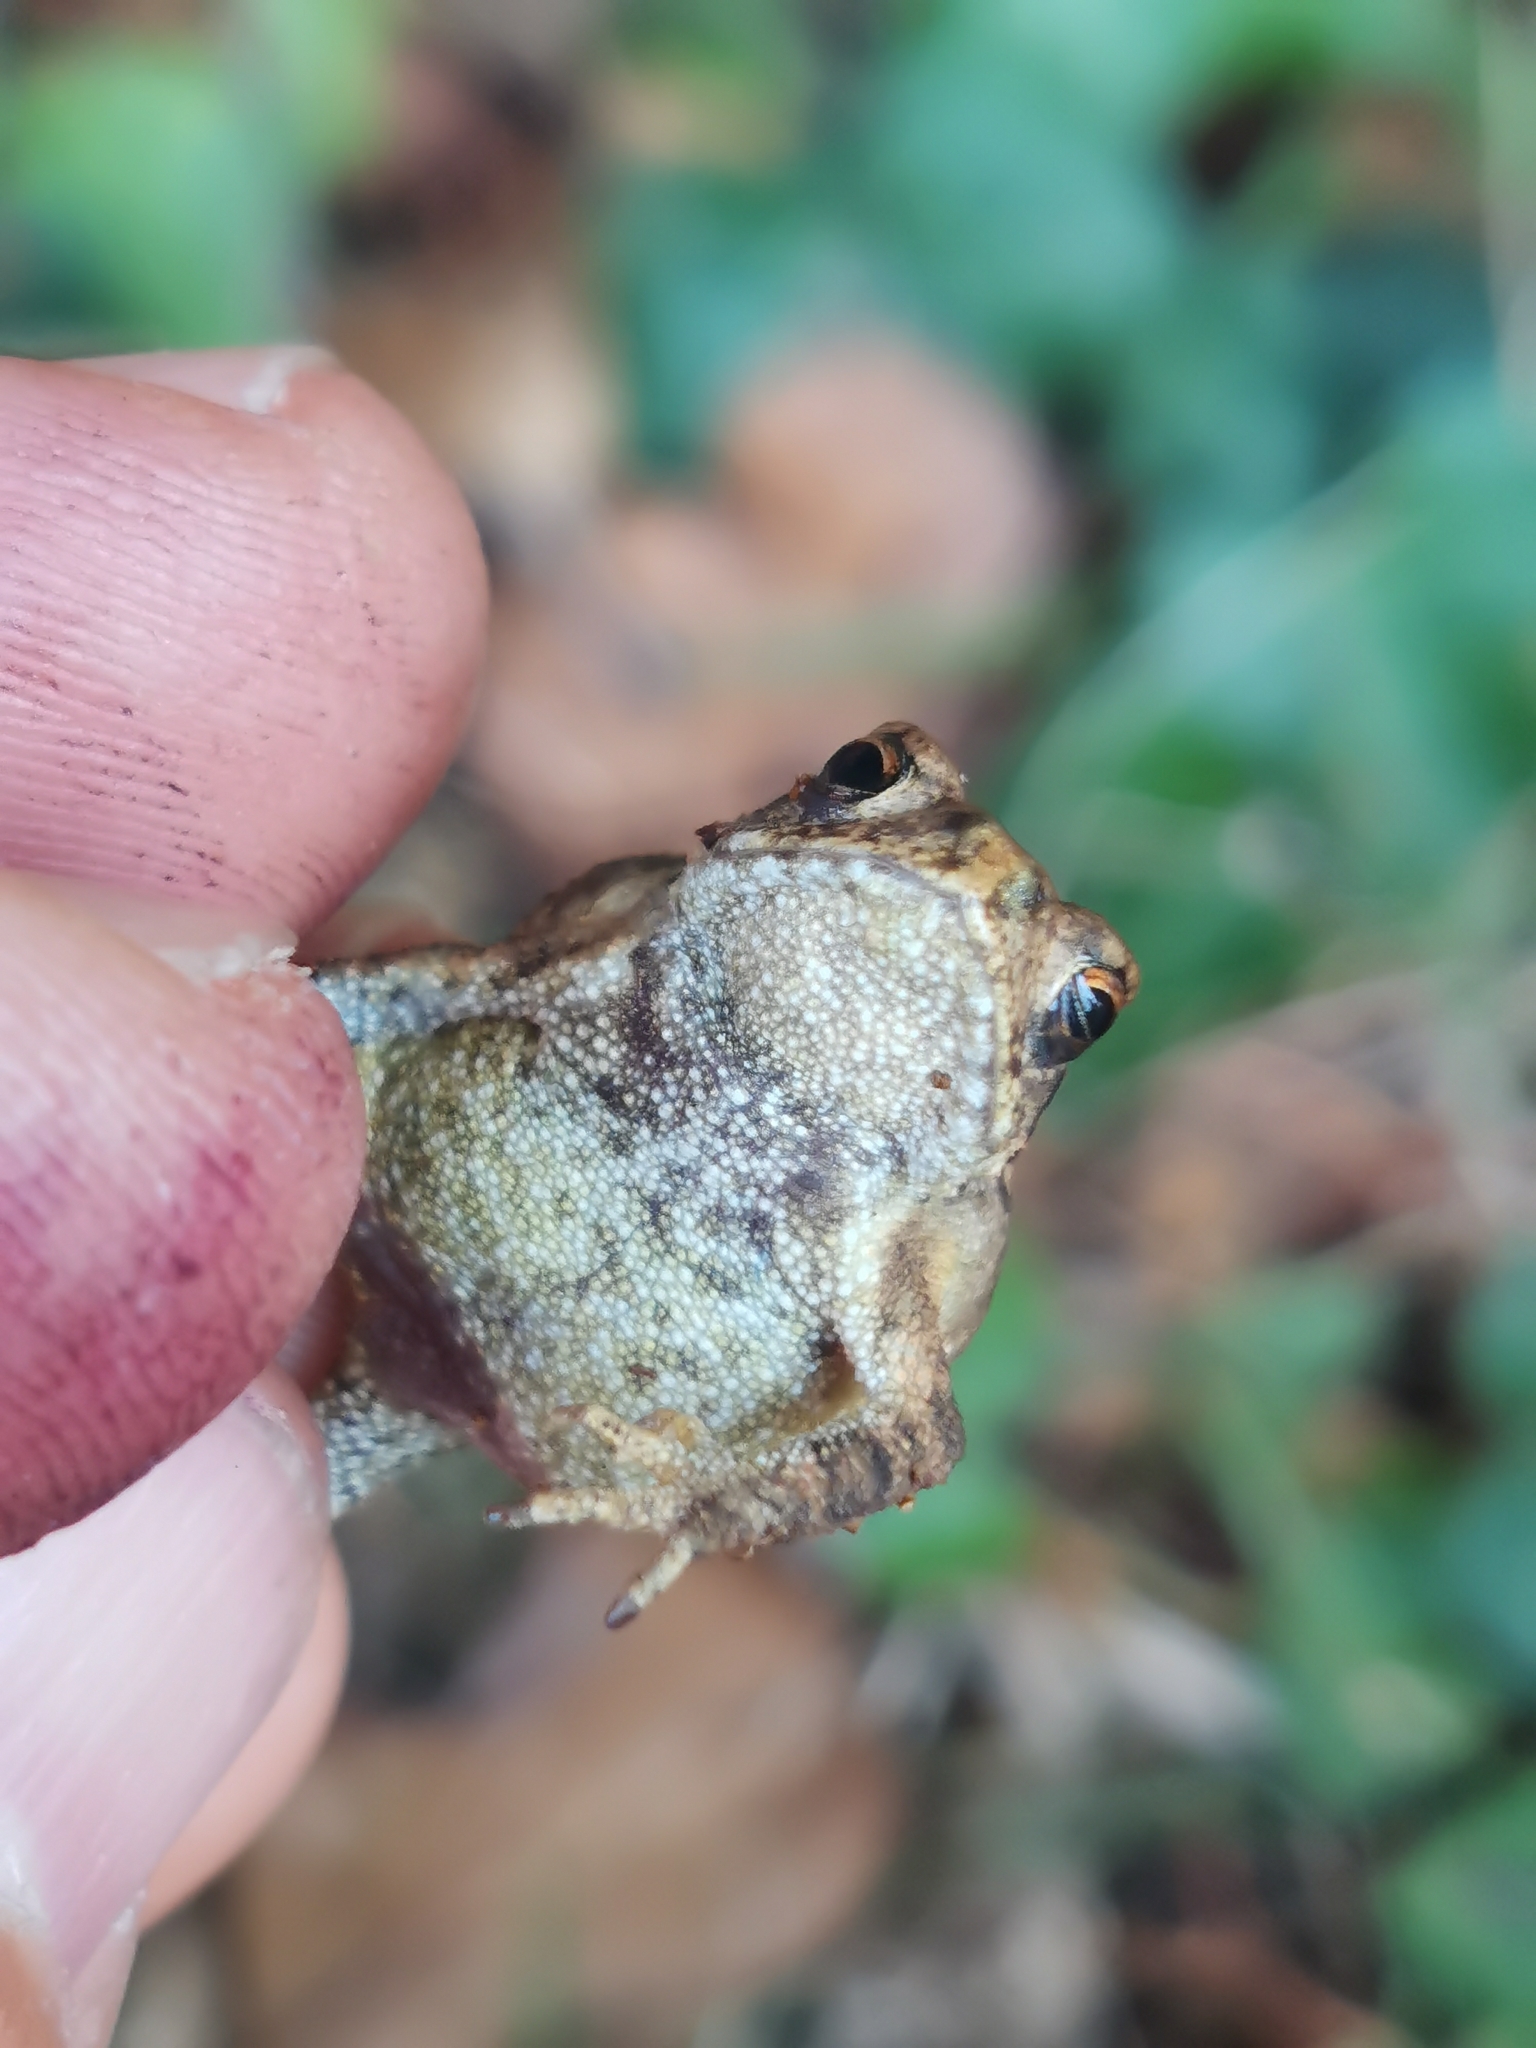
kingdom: Animalia
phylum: Chordata
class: Amphibia
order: Anura
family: Bufonidae
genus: Bufo
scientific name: Bufo spinosus
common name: Western common toad
